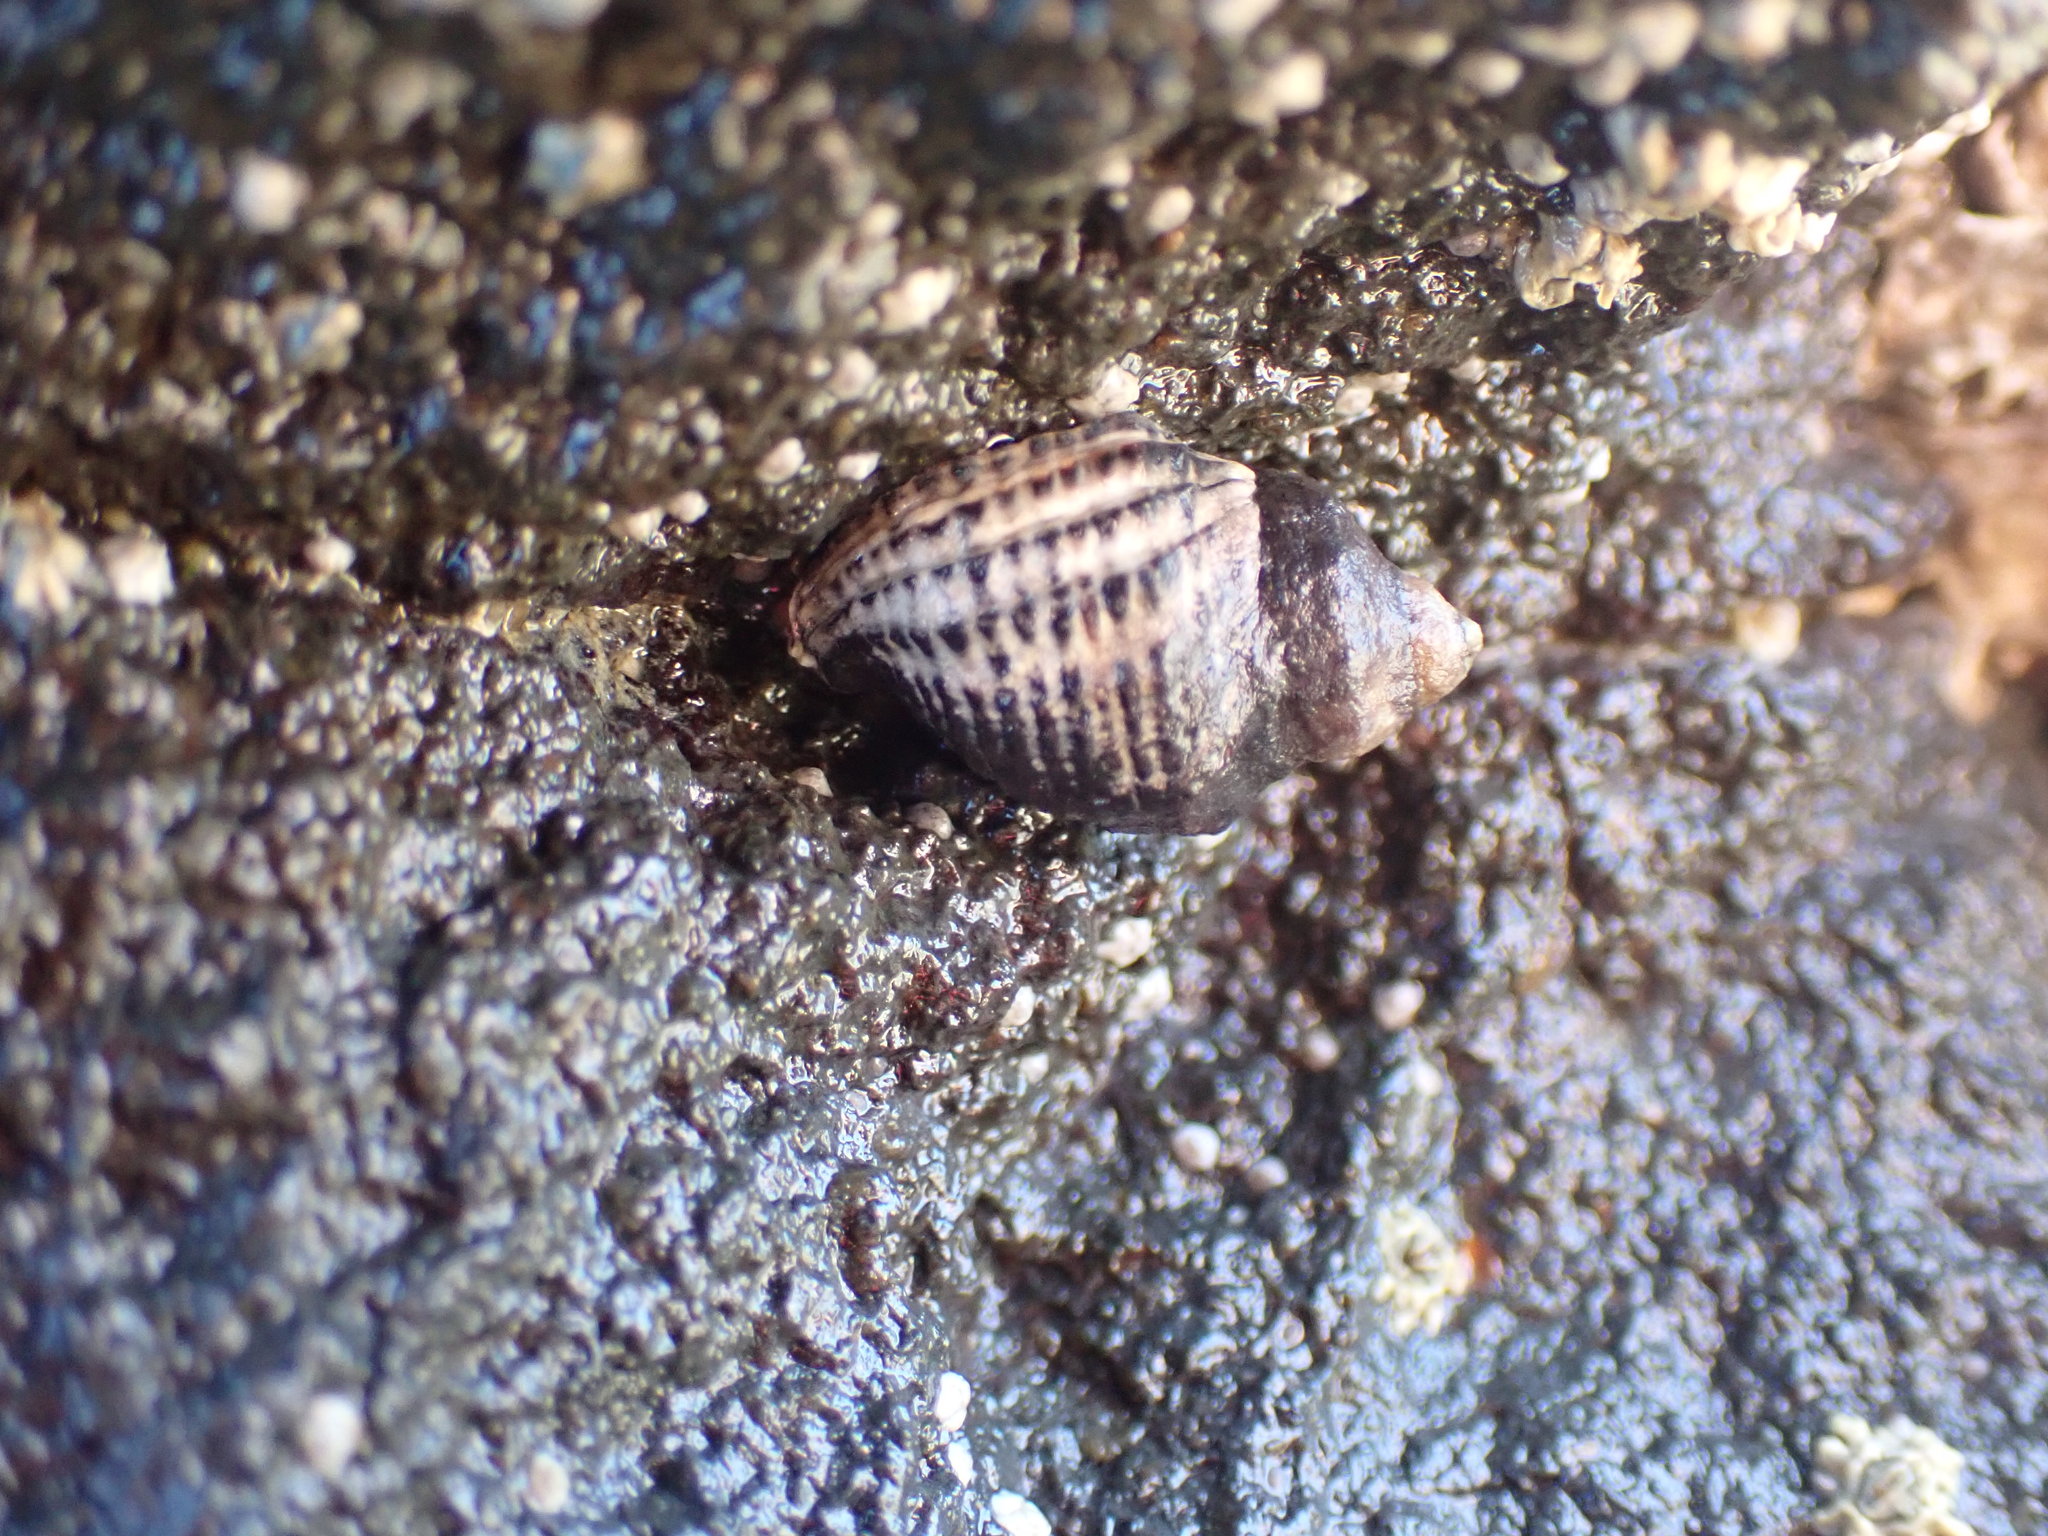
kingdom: Animalia
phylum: Mollusca
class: Gastropoda
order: Neogastropoda
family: Muricidae
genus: Haustrum
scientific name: Haustrum albomarginatum
